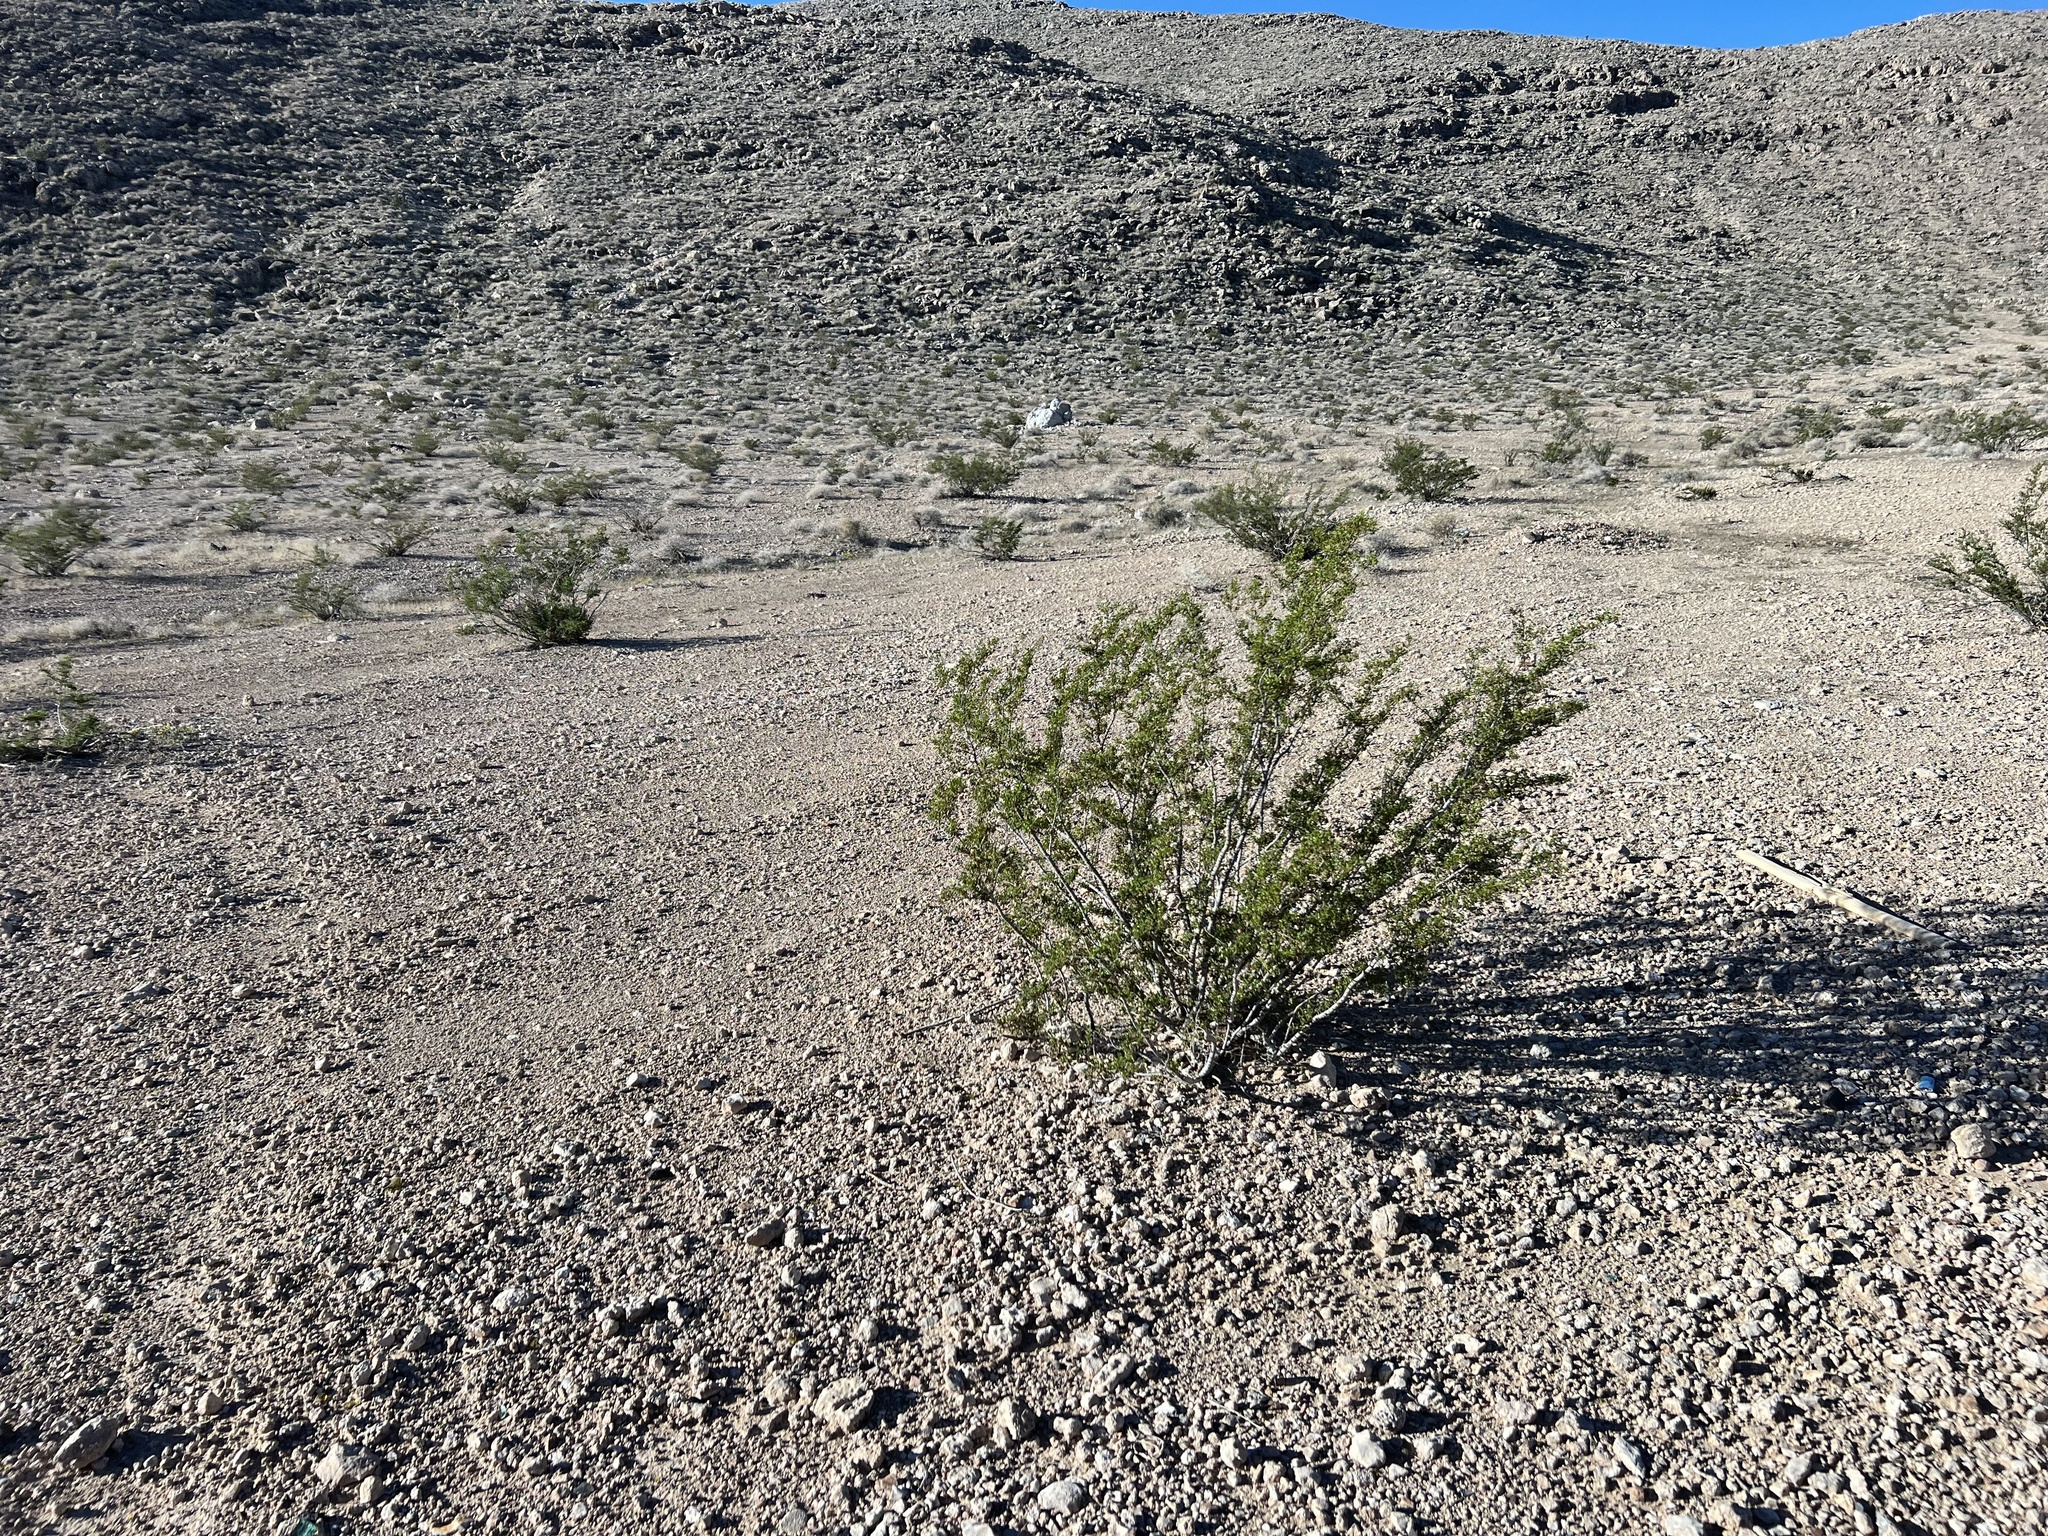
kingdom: Plantae
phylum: Tracheophyta
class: Magnoliopsida
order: Zygophyllales
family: Zygophyllaceae
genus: Larrea
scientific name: Larrea tridentata
